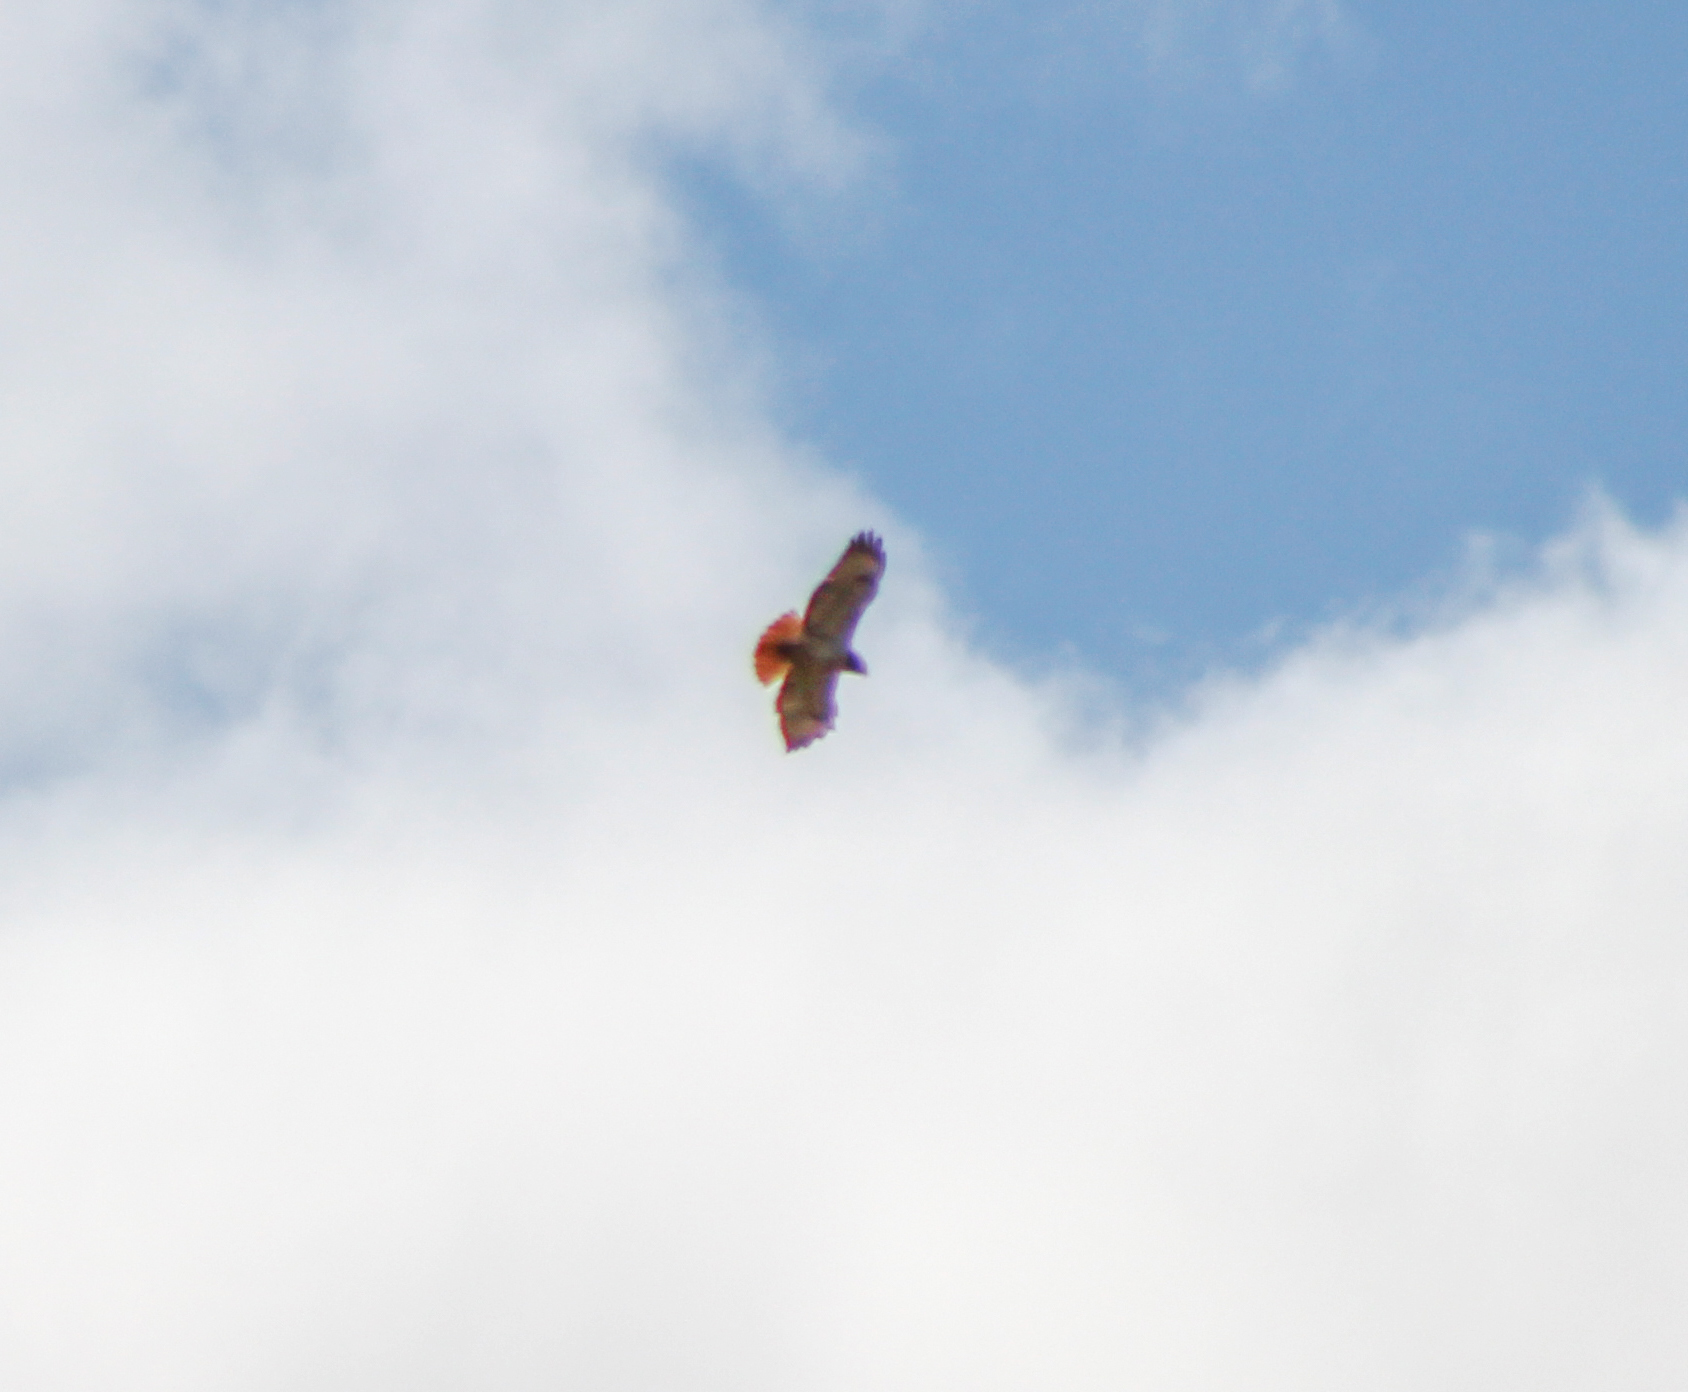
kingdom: Animalia
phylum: Chordata
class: Aves
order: Accipitriformes
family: Accipitridae
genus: Buteo
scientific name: Buteo jamaicensis
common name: Red-tailed hawk
